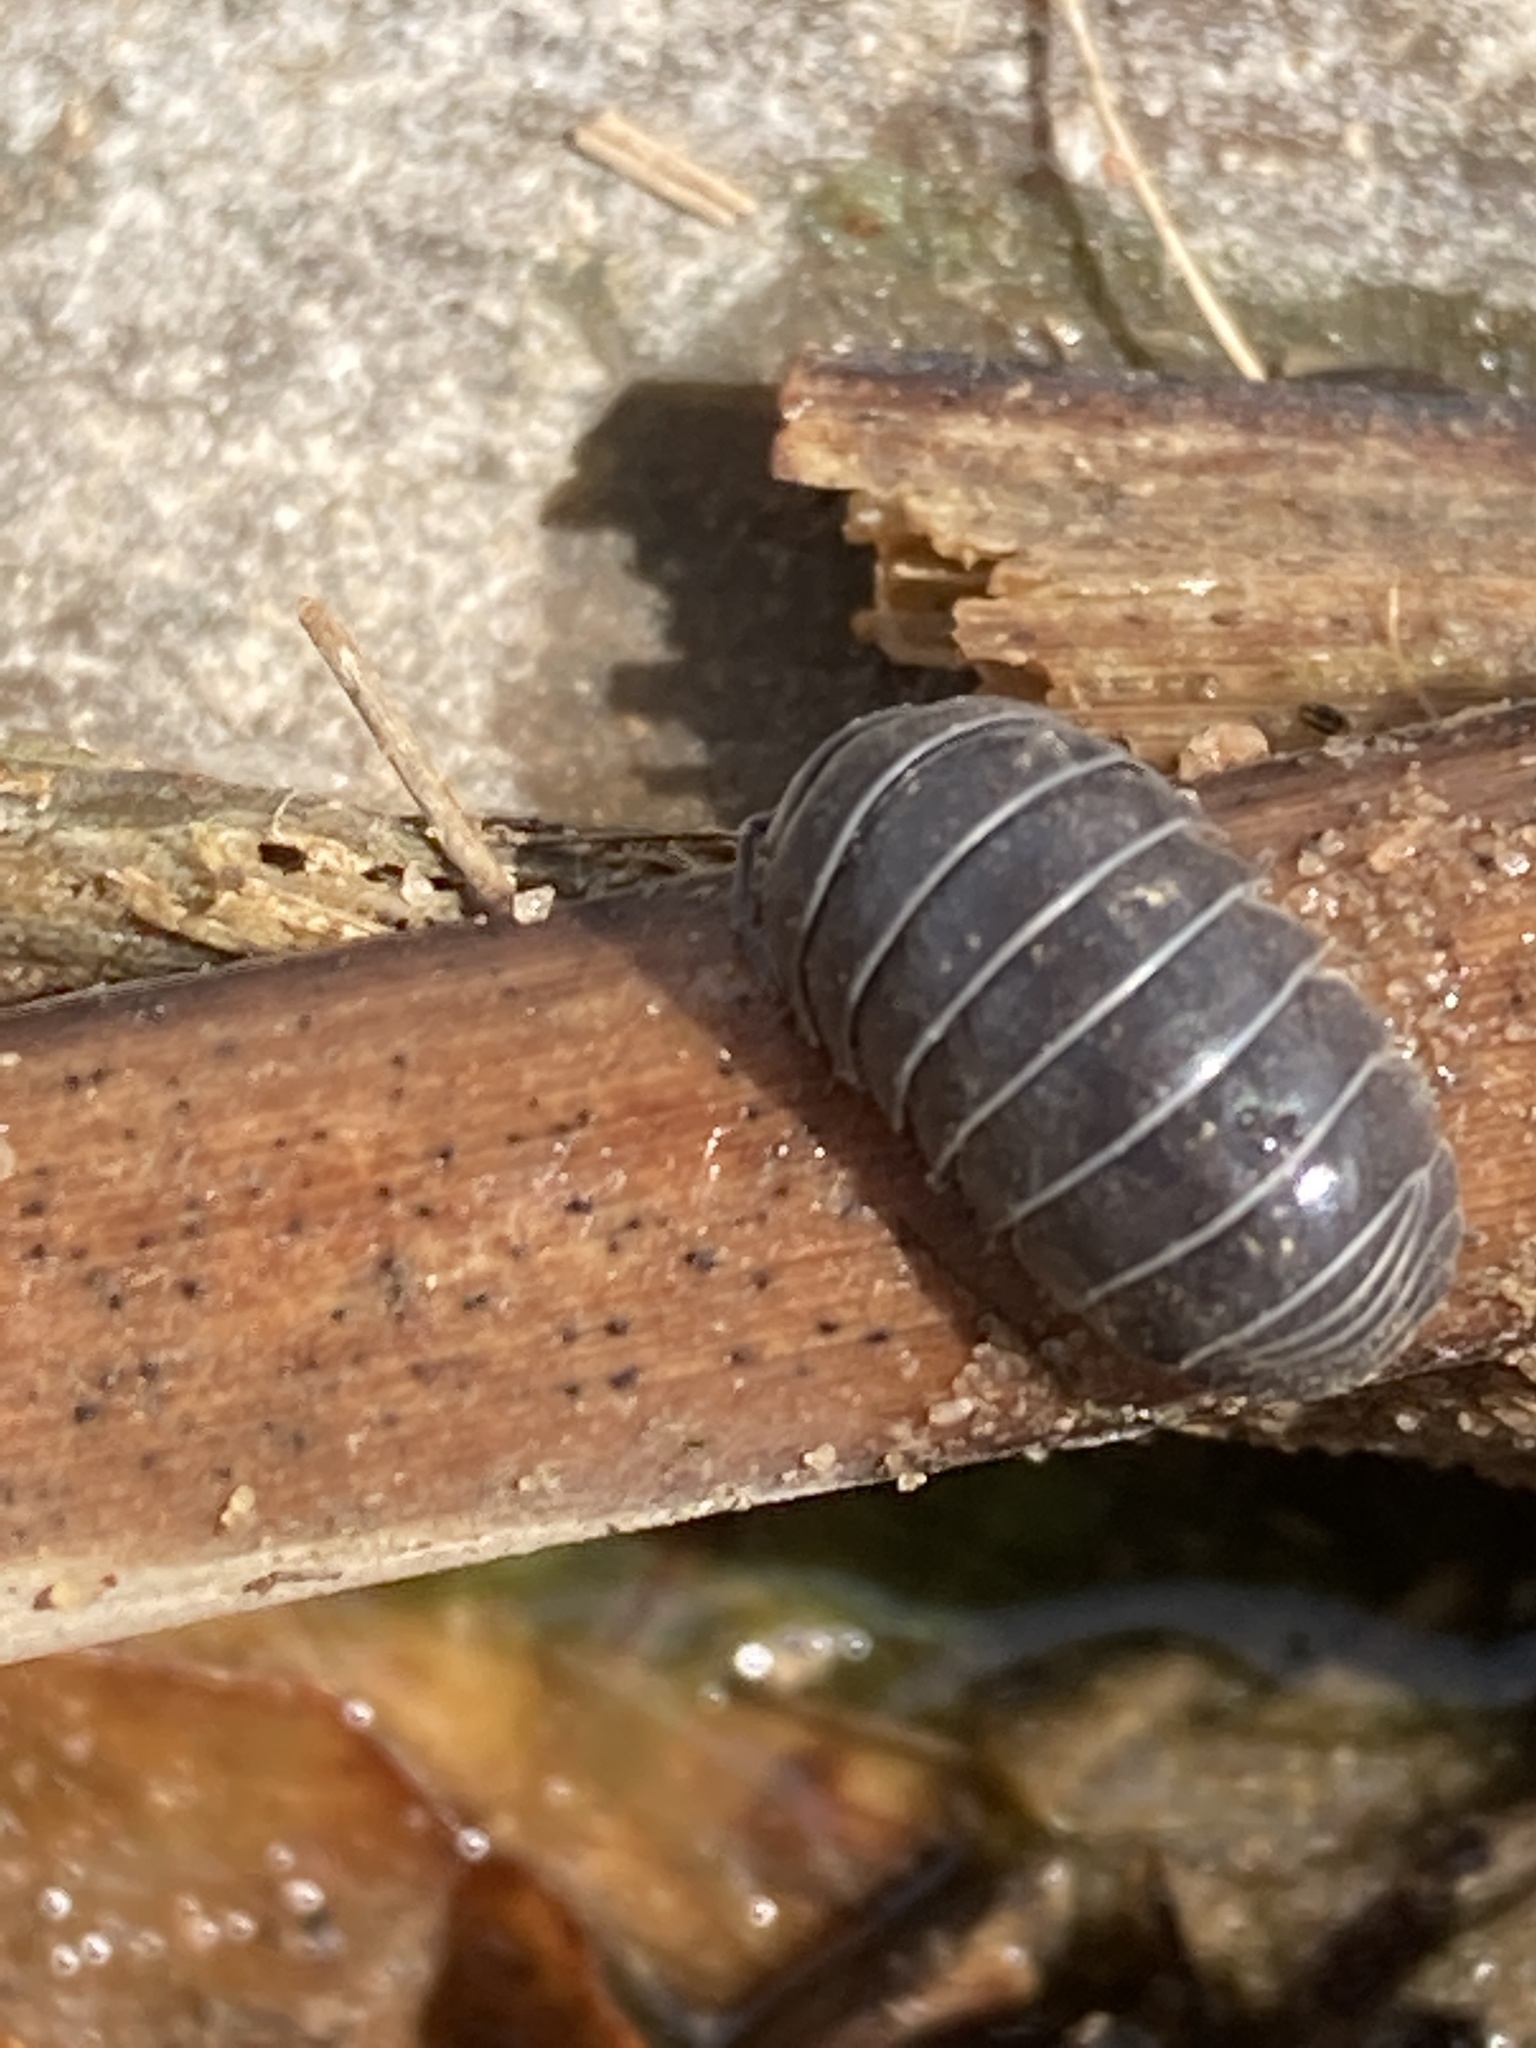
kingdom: Animalia
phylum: Arthropoda
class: Malacostraca
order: Isopoda
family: Armadillidiidae
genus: Armadillidium
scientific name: Armadillidium vulgare
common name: Common pill woodlouse
